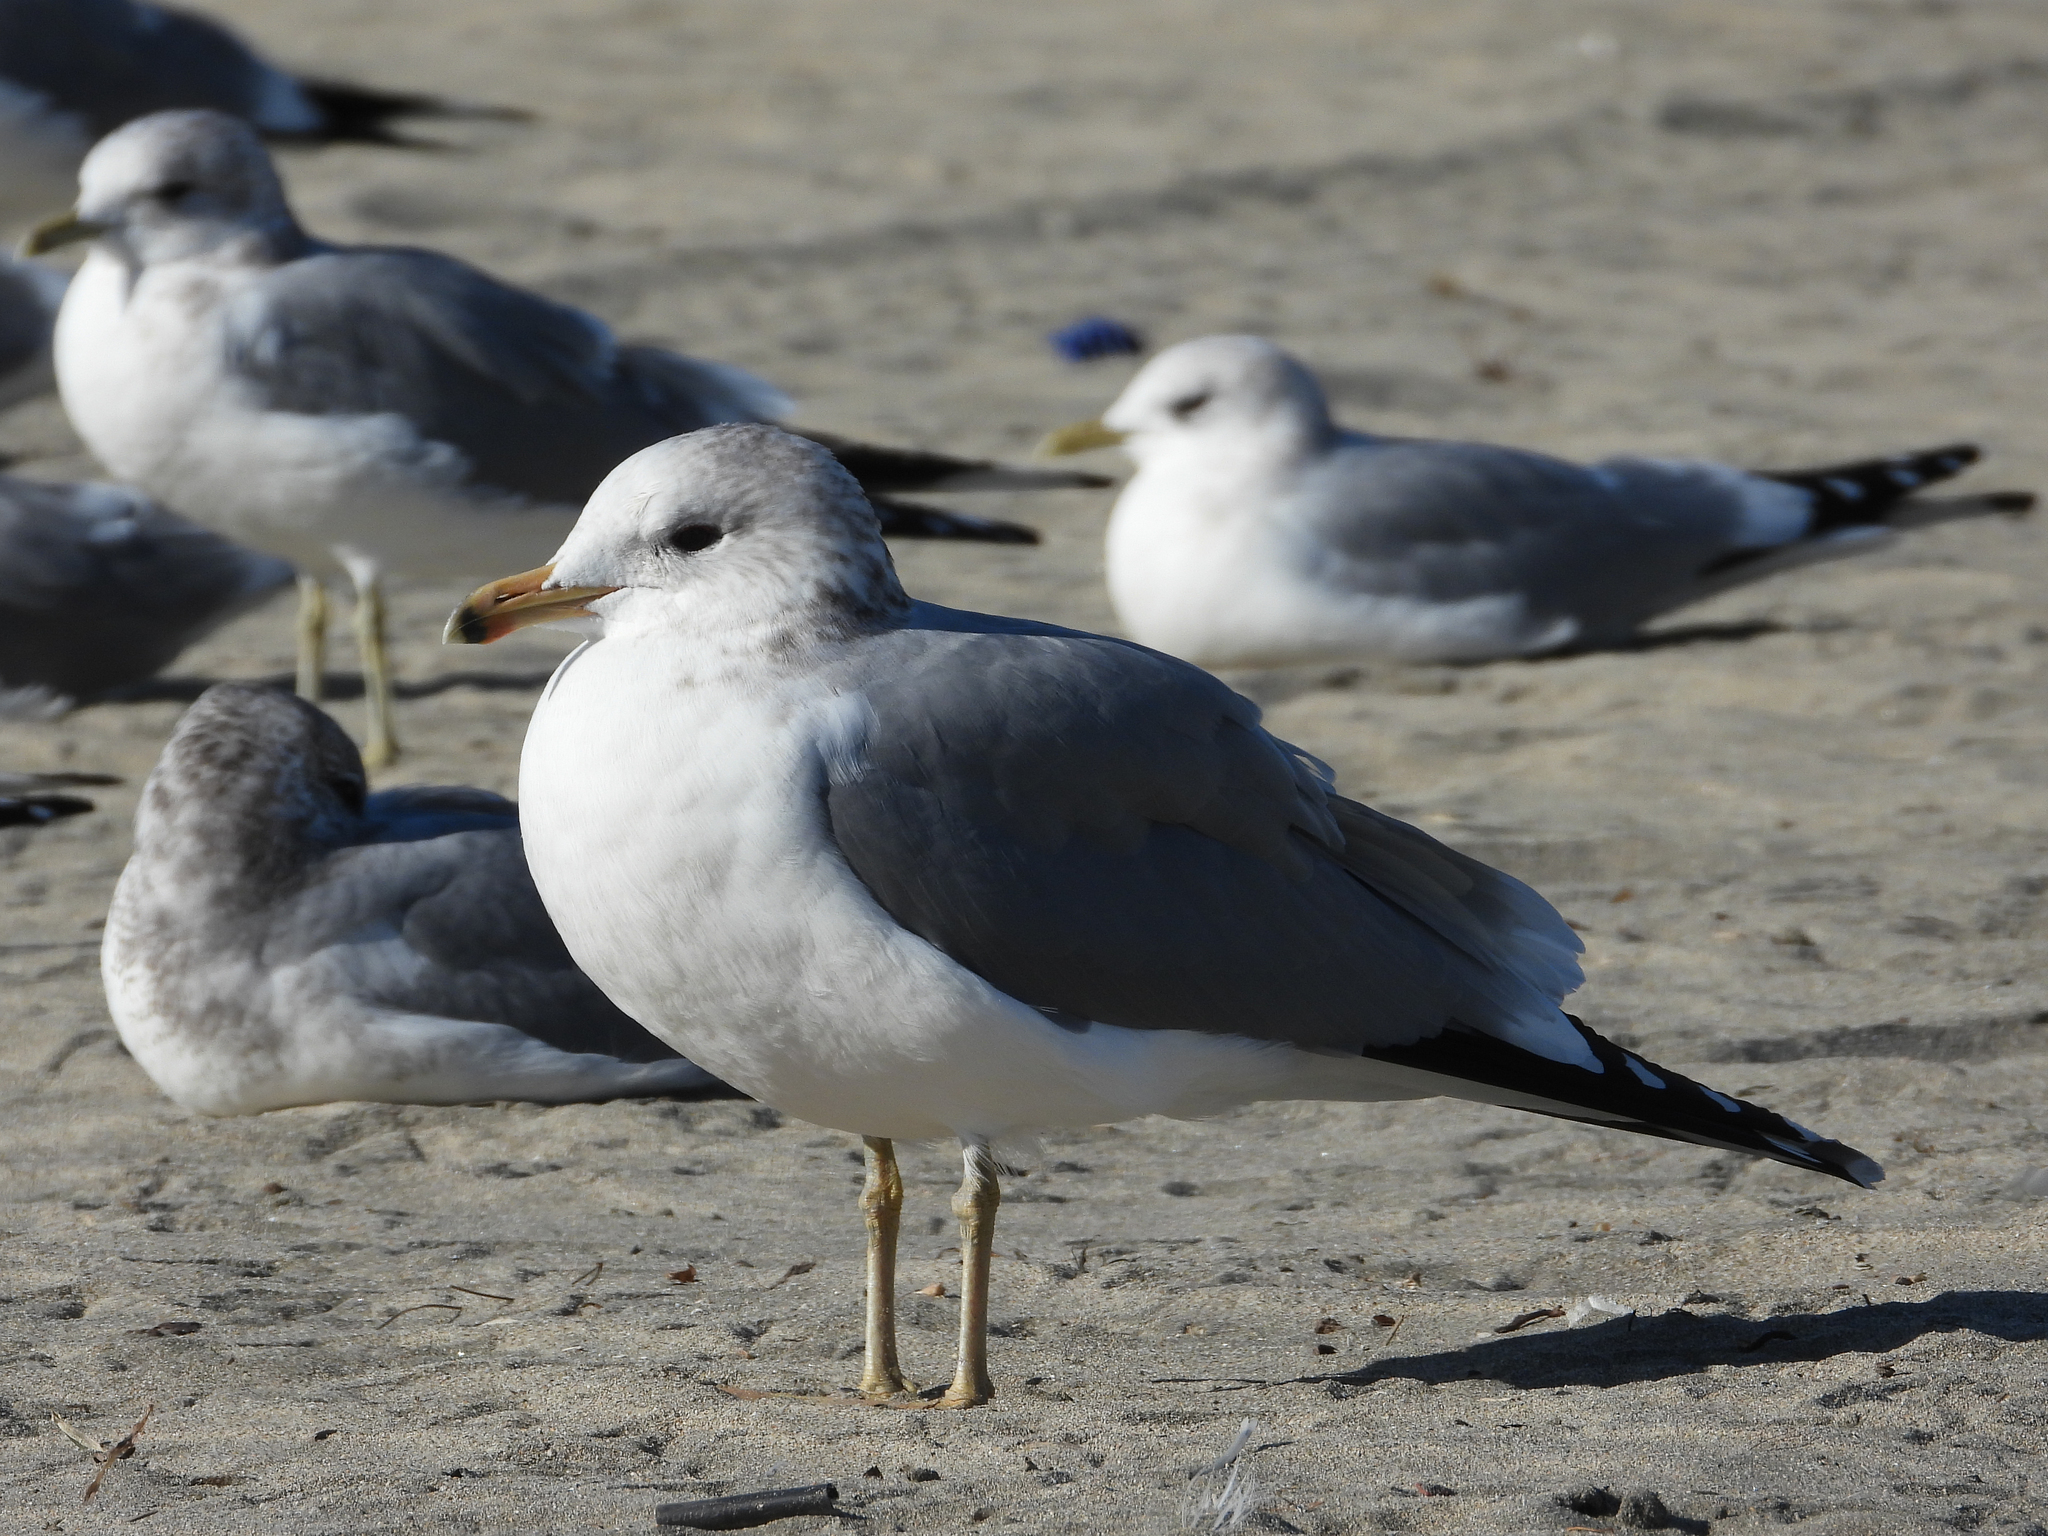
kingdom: Animalia
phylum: Chordata
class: Aves
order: Charadriiformes
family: Laridae
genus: Larus
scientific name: Larus californicus
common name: California gull
